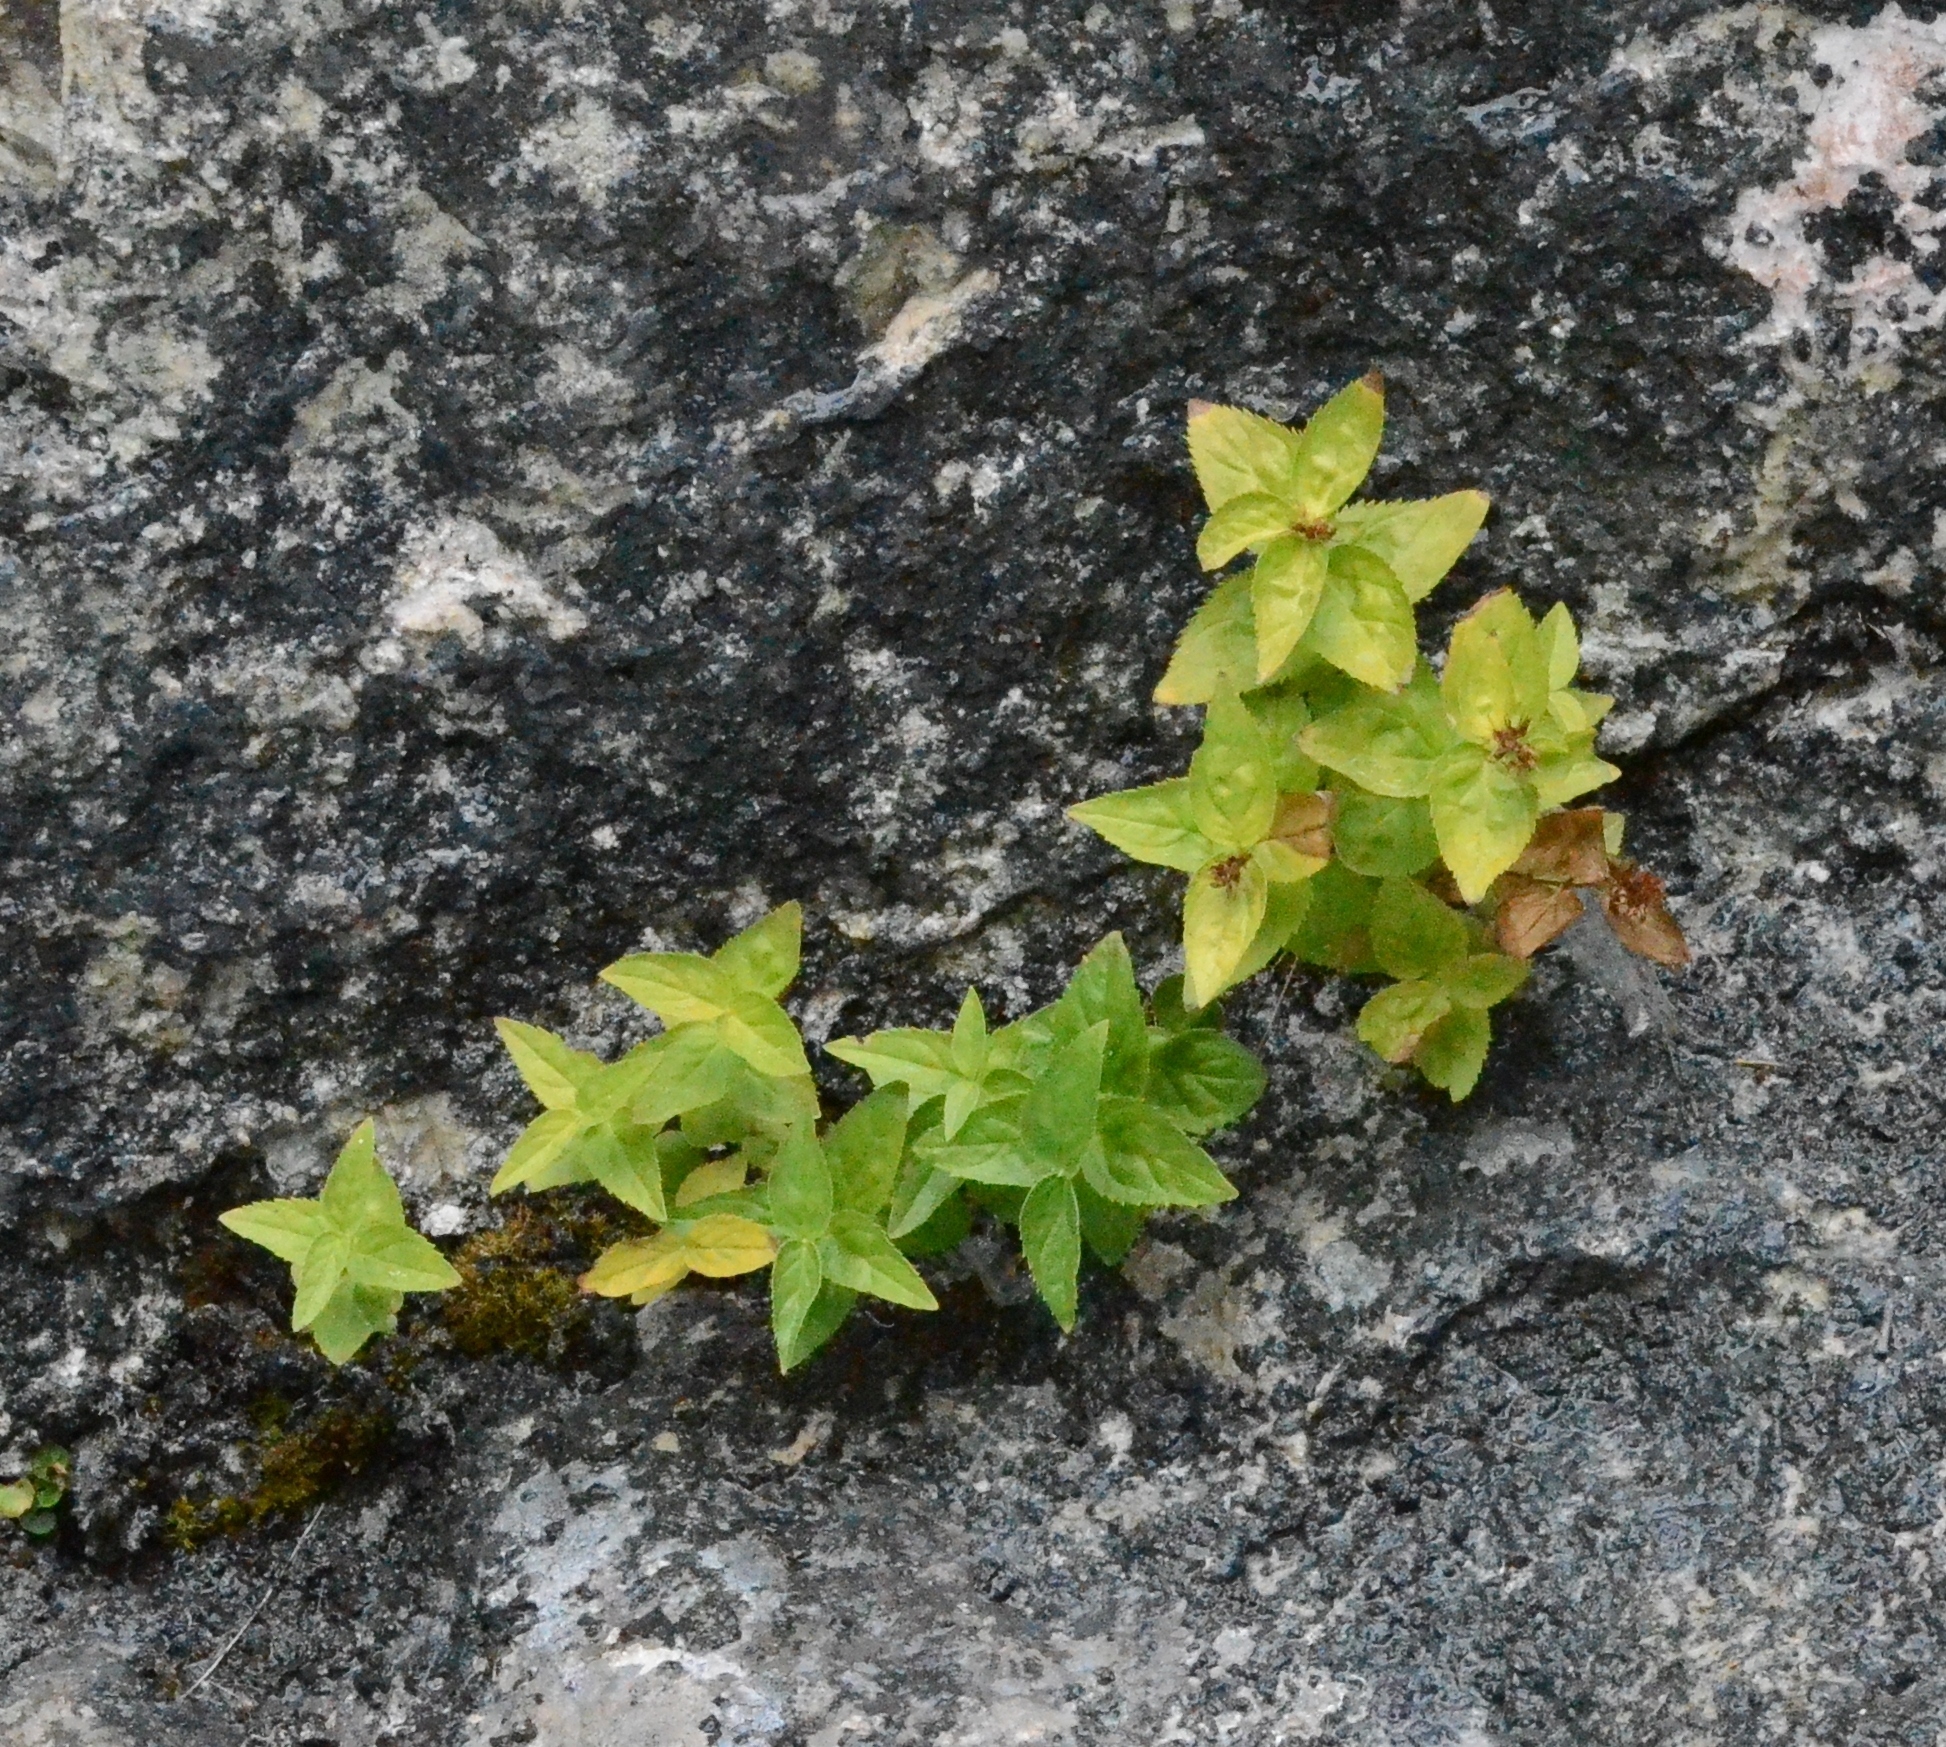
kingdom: Plantae
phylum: Tracheophyta
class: Magnoliopsida
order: Lamiales
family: Plantaginaceae
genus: Paederota
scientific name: Paederota lutea
